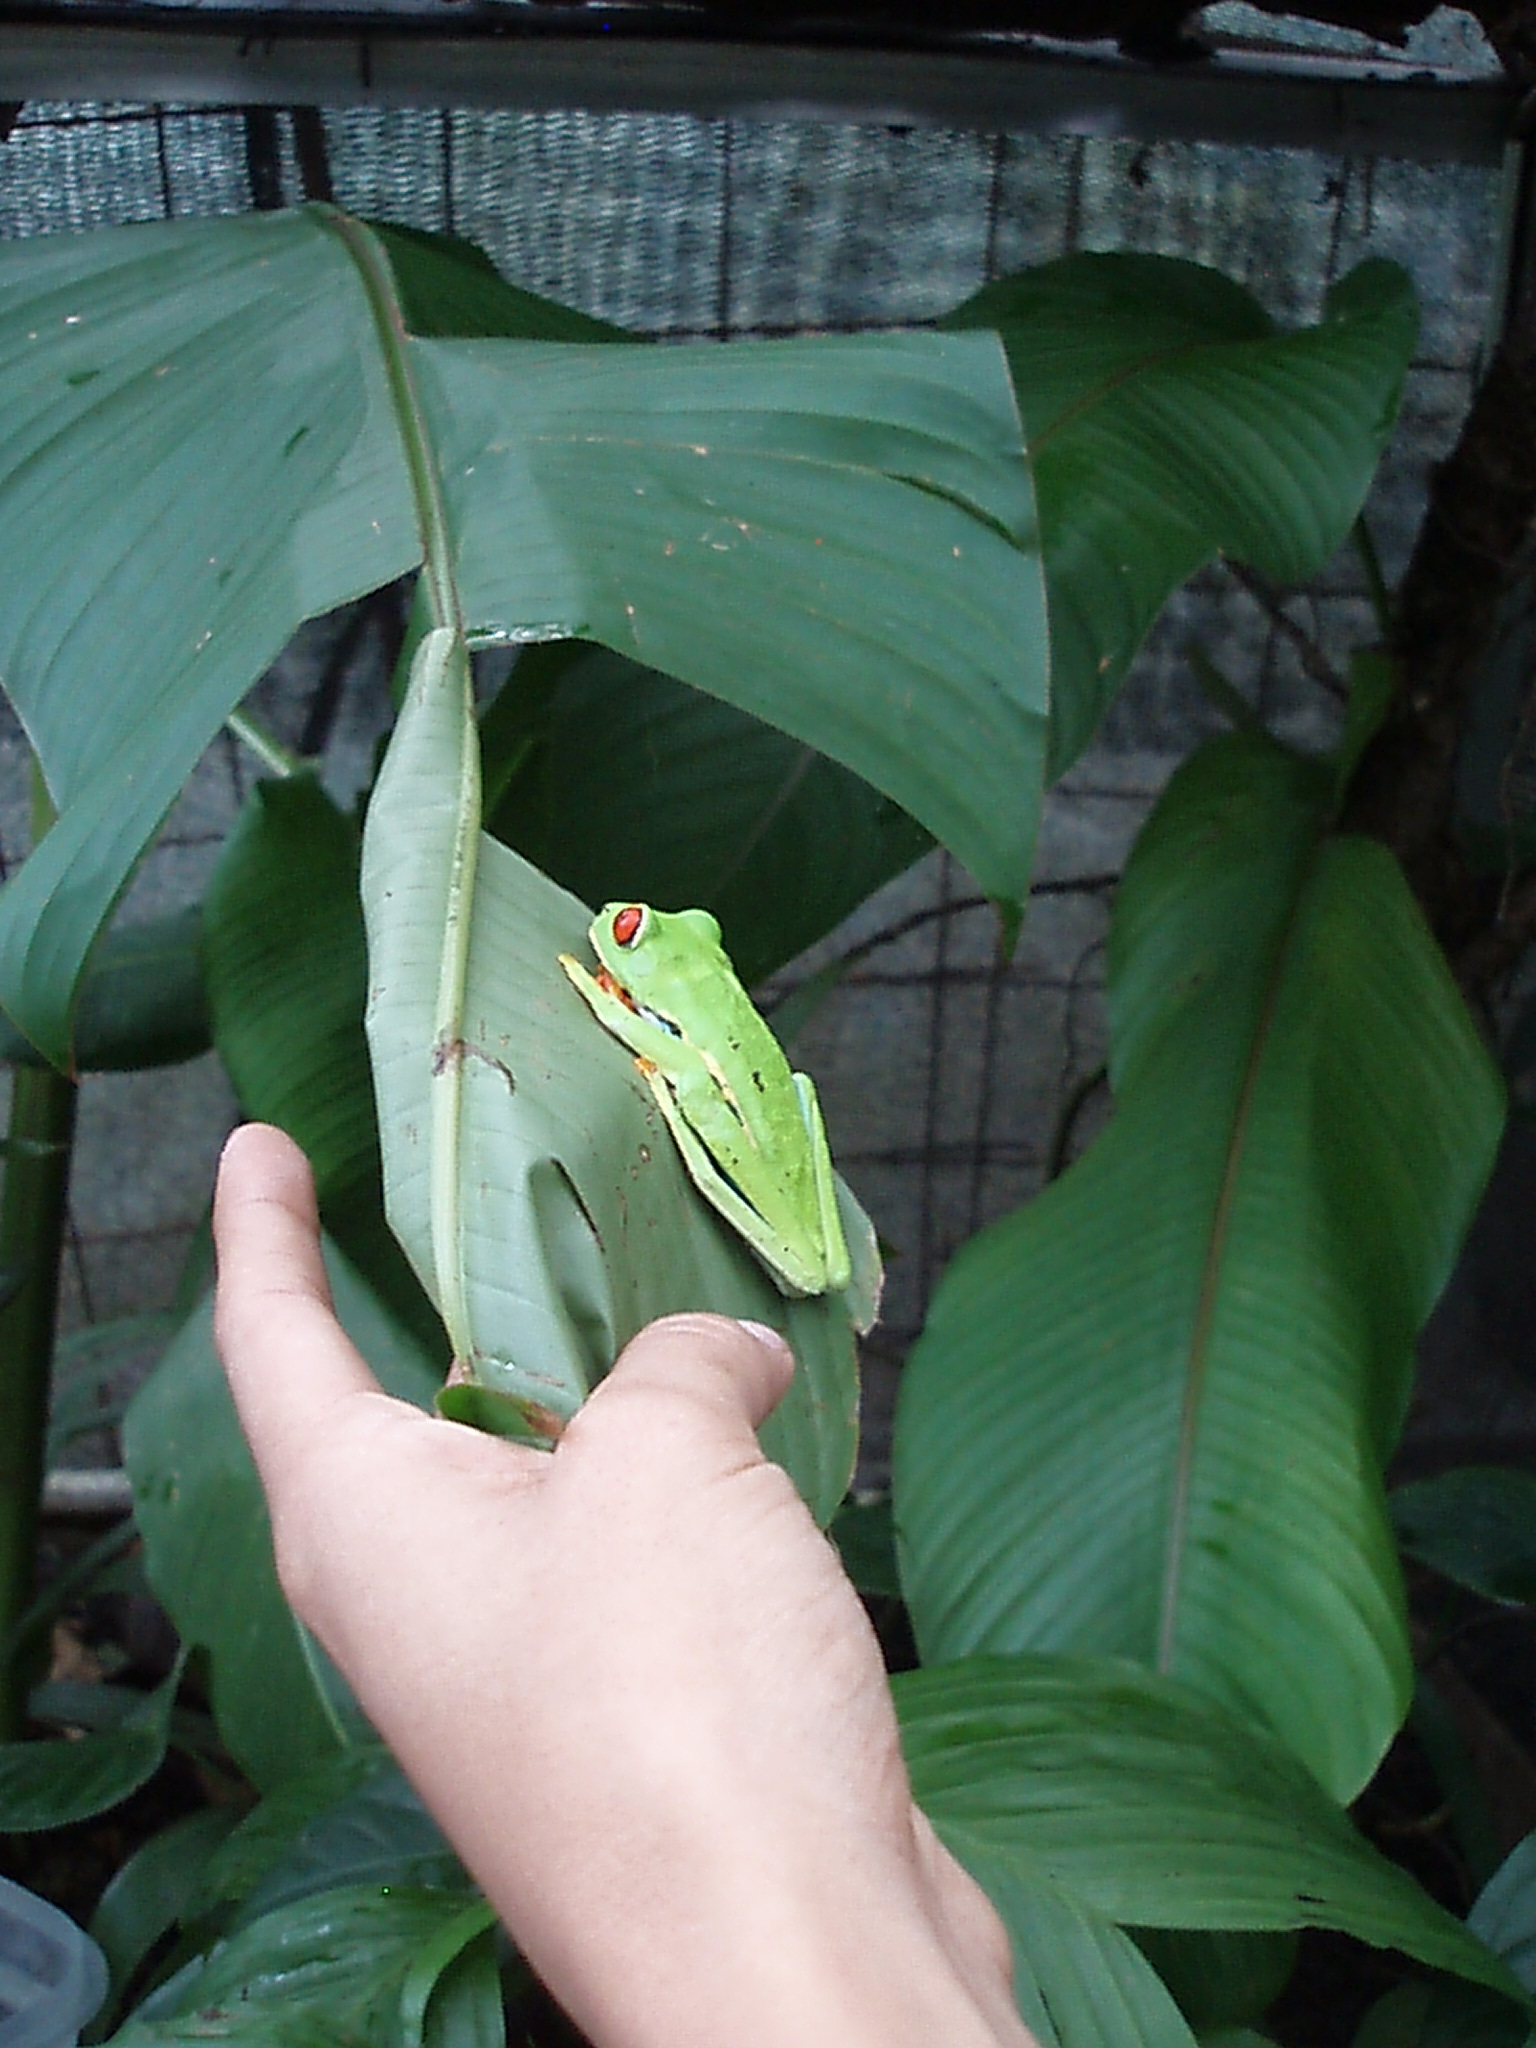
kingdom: Animalia
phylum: Chordata
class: Amphibia
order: Anura
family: Phyllomedusidae
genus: Agalychnis
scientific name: Agalychnis callidryas
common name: Red-eyed treefrog
